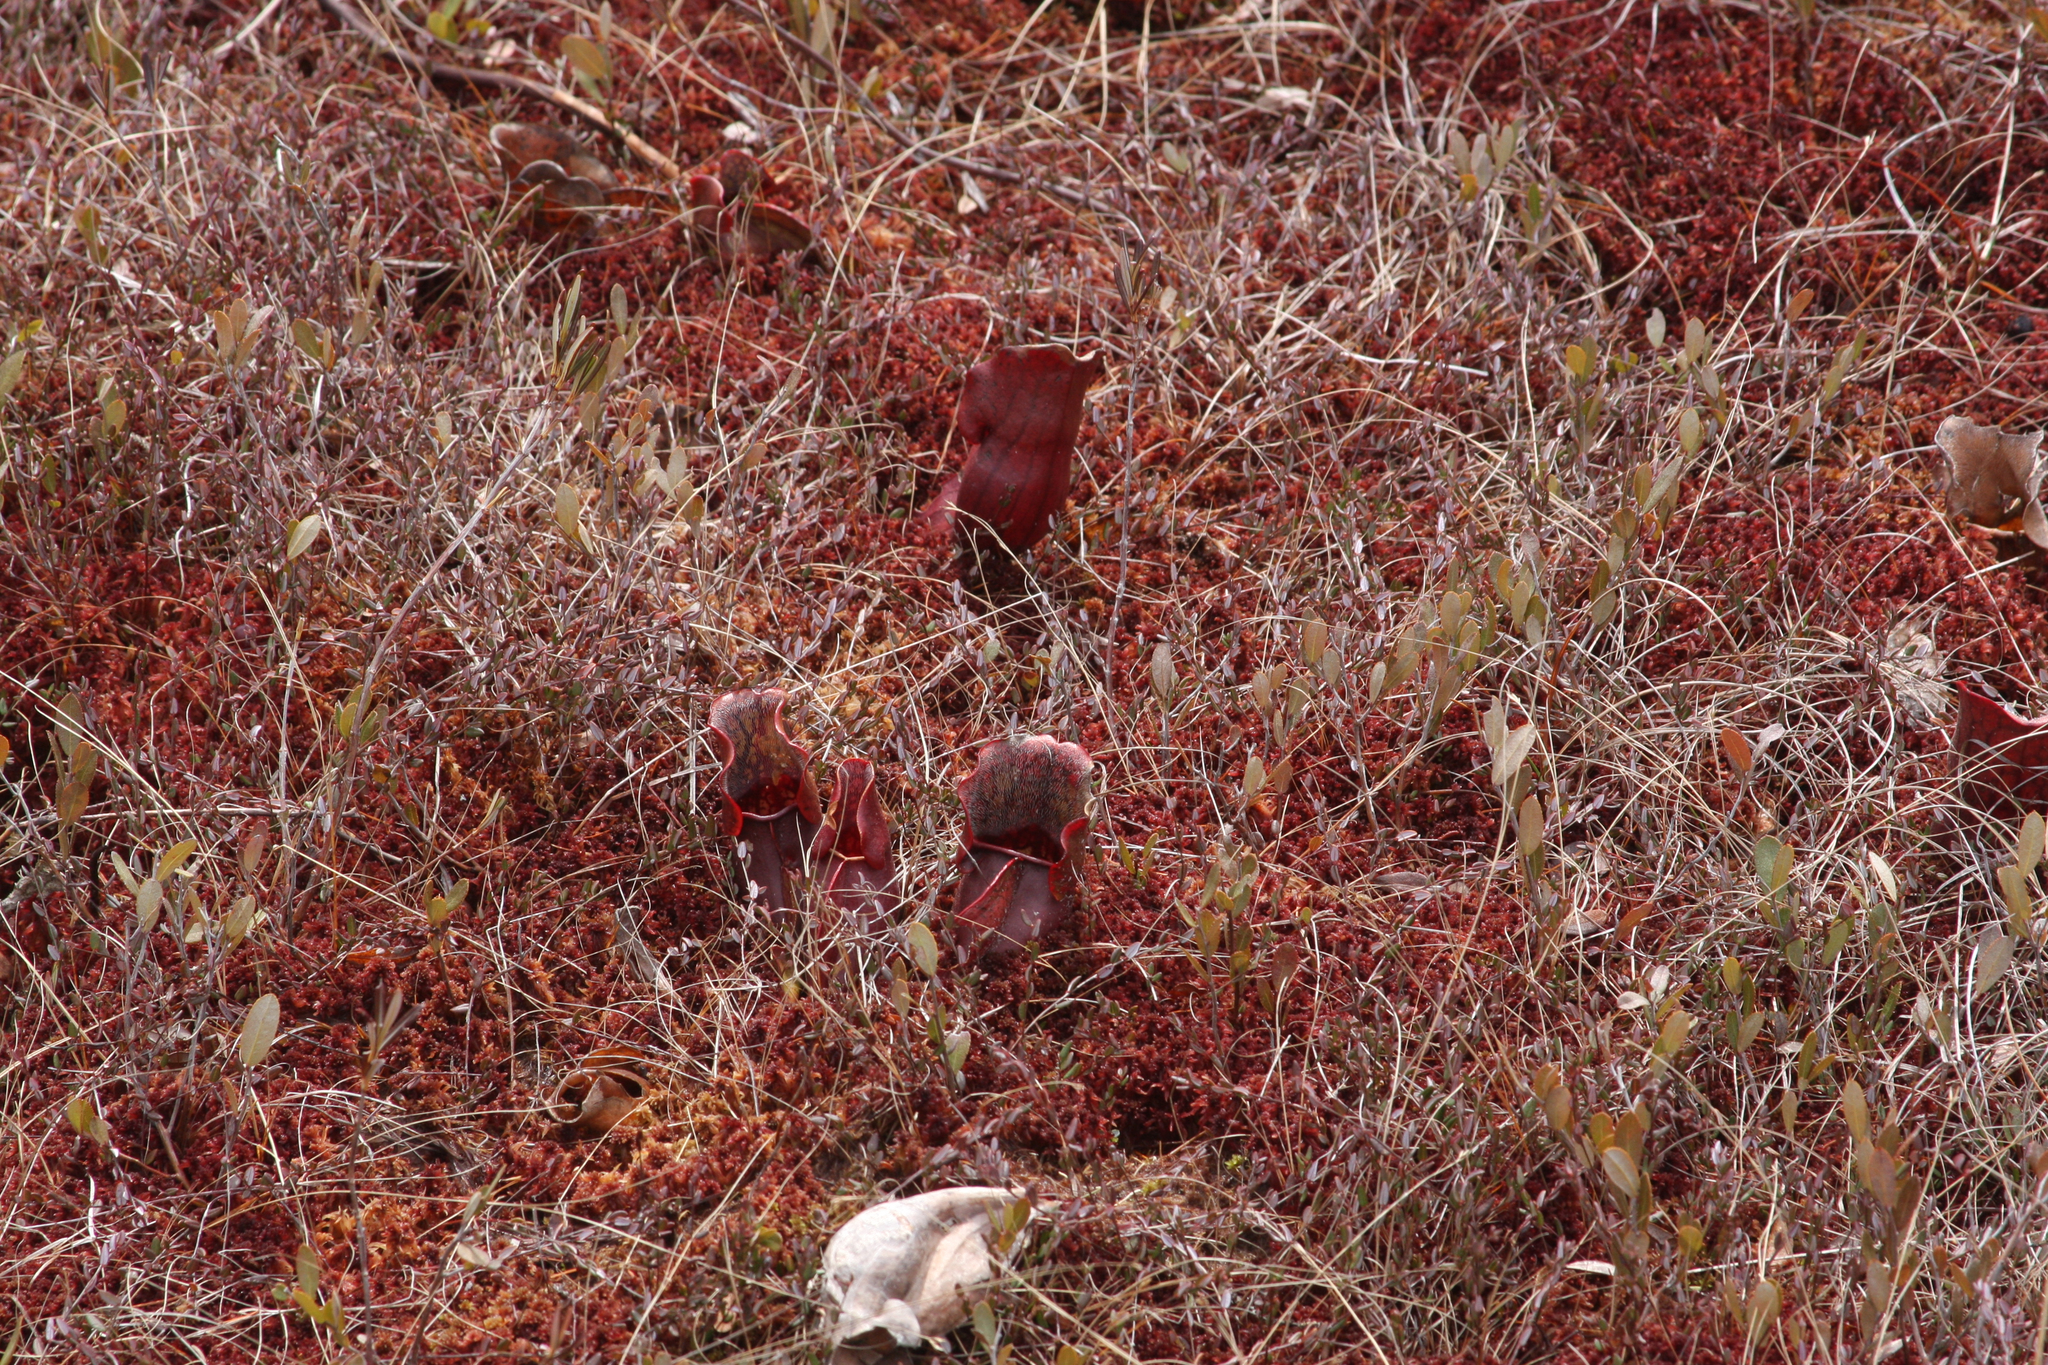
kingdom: Plantae
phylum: Tracheophyta
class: Magnoliopsida
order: Ericales
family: Sarraceniaceae
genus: Sarracenia
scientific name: Sarracenia purpurea
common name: Pitcherplant
